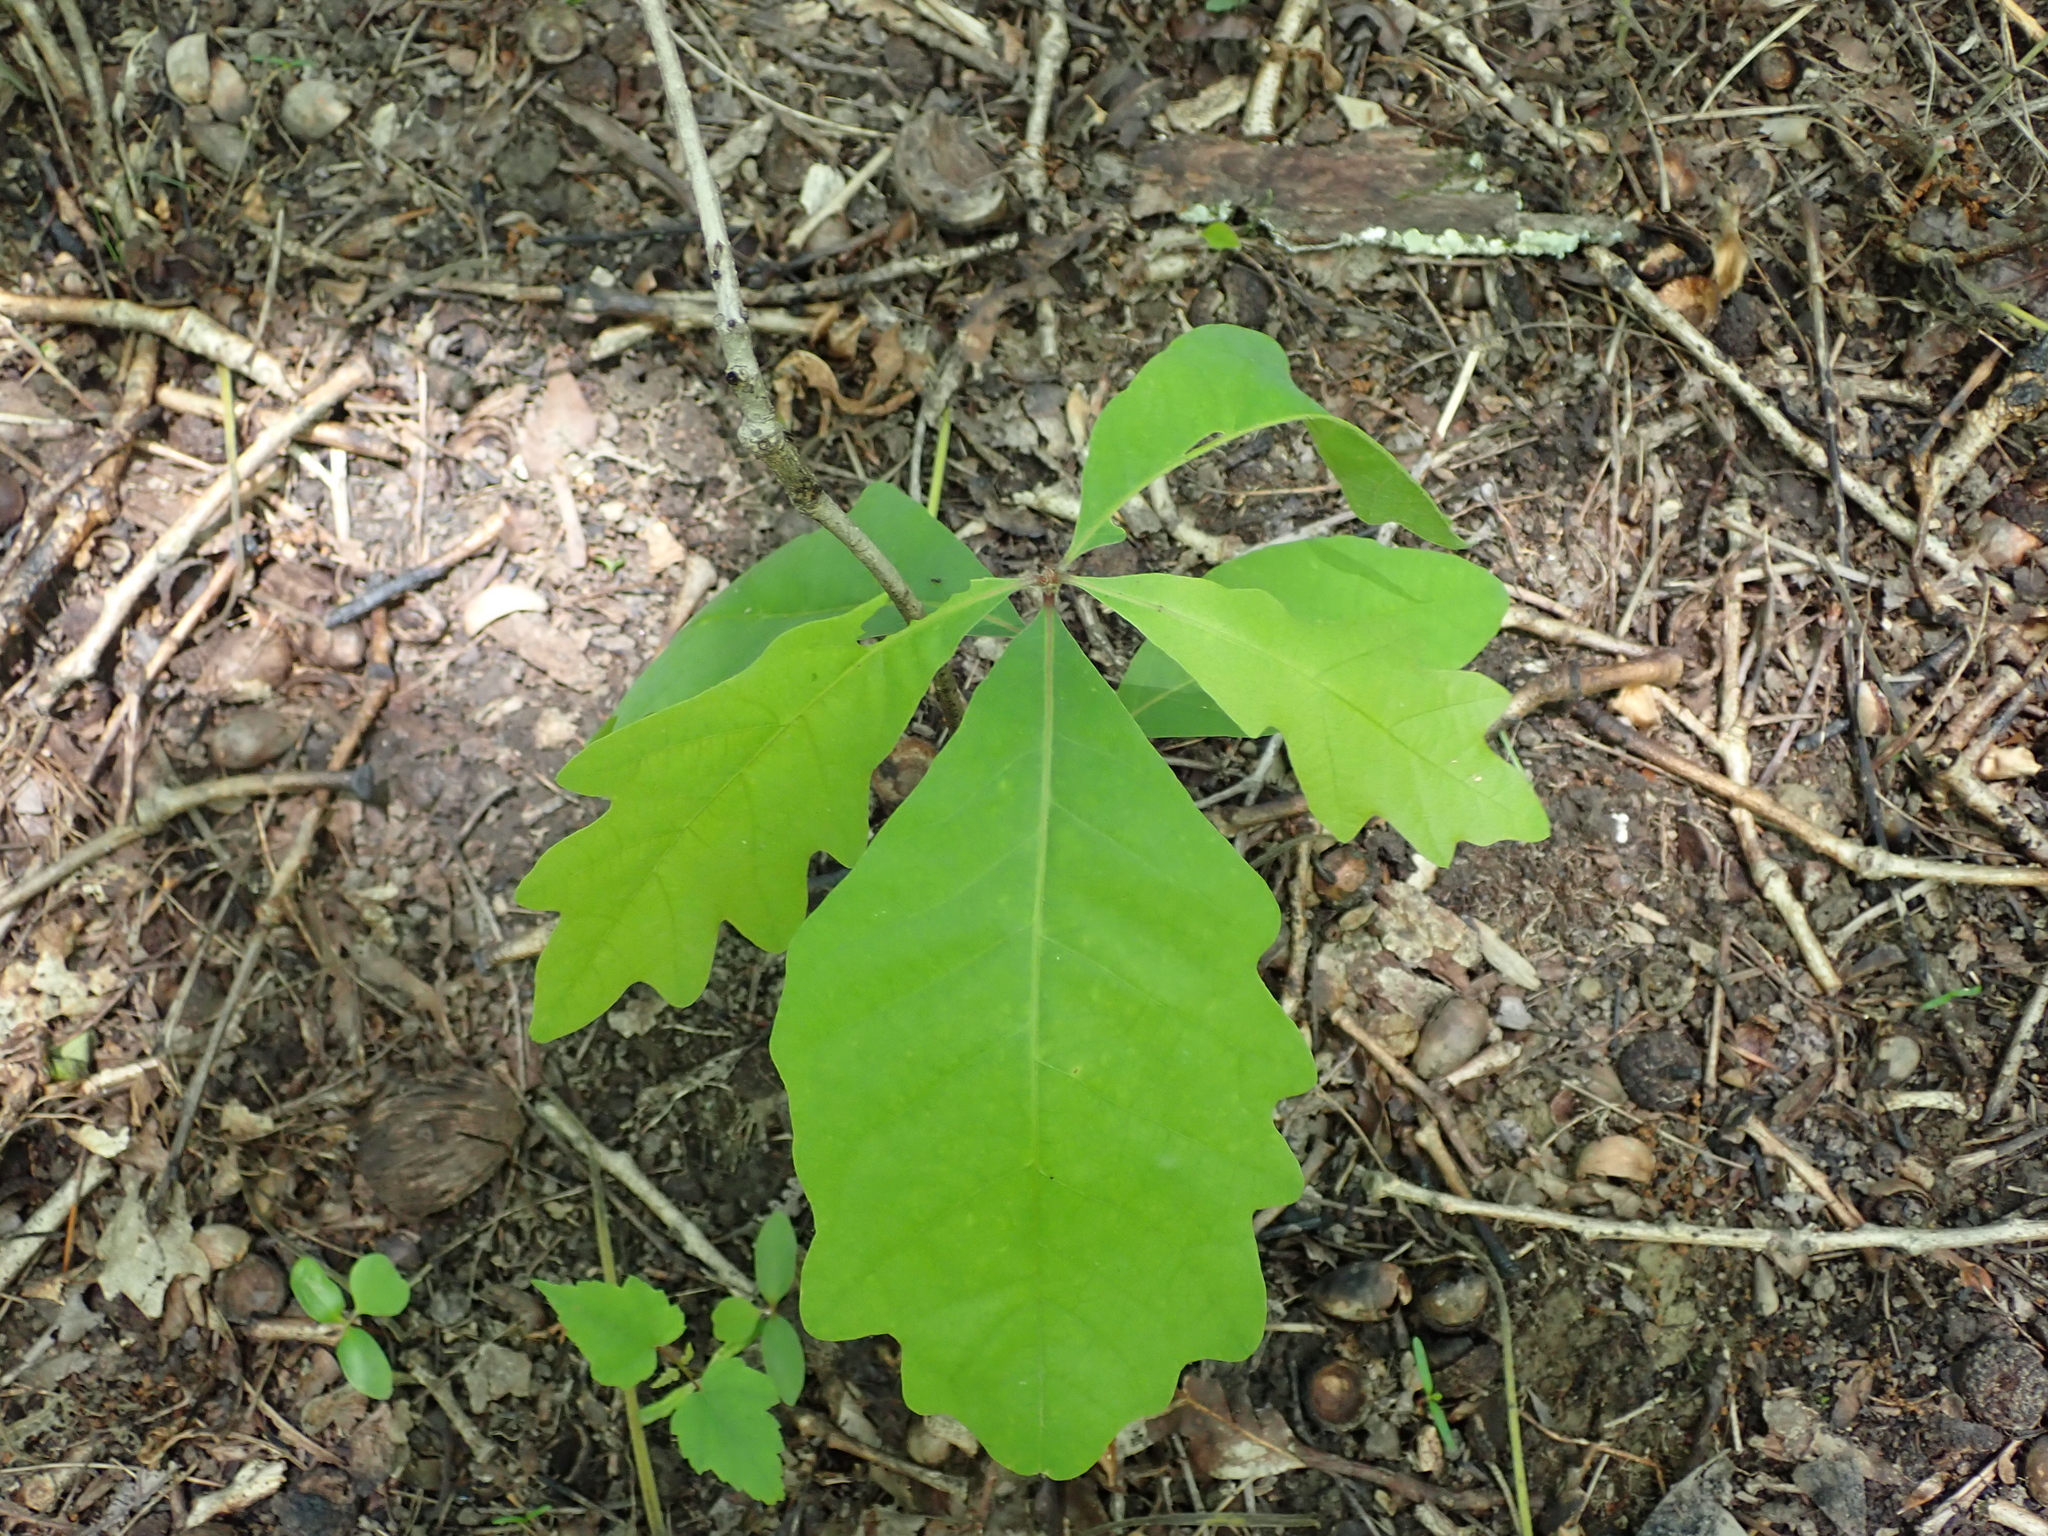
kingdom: Plantae
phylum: Tracheophyta
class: Magnoliopsida
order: Fagales
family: Fagaceae
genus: Quercus
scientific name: Quercus alba
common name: White oak
